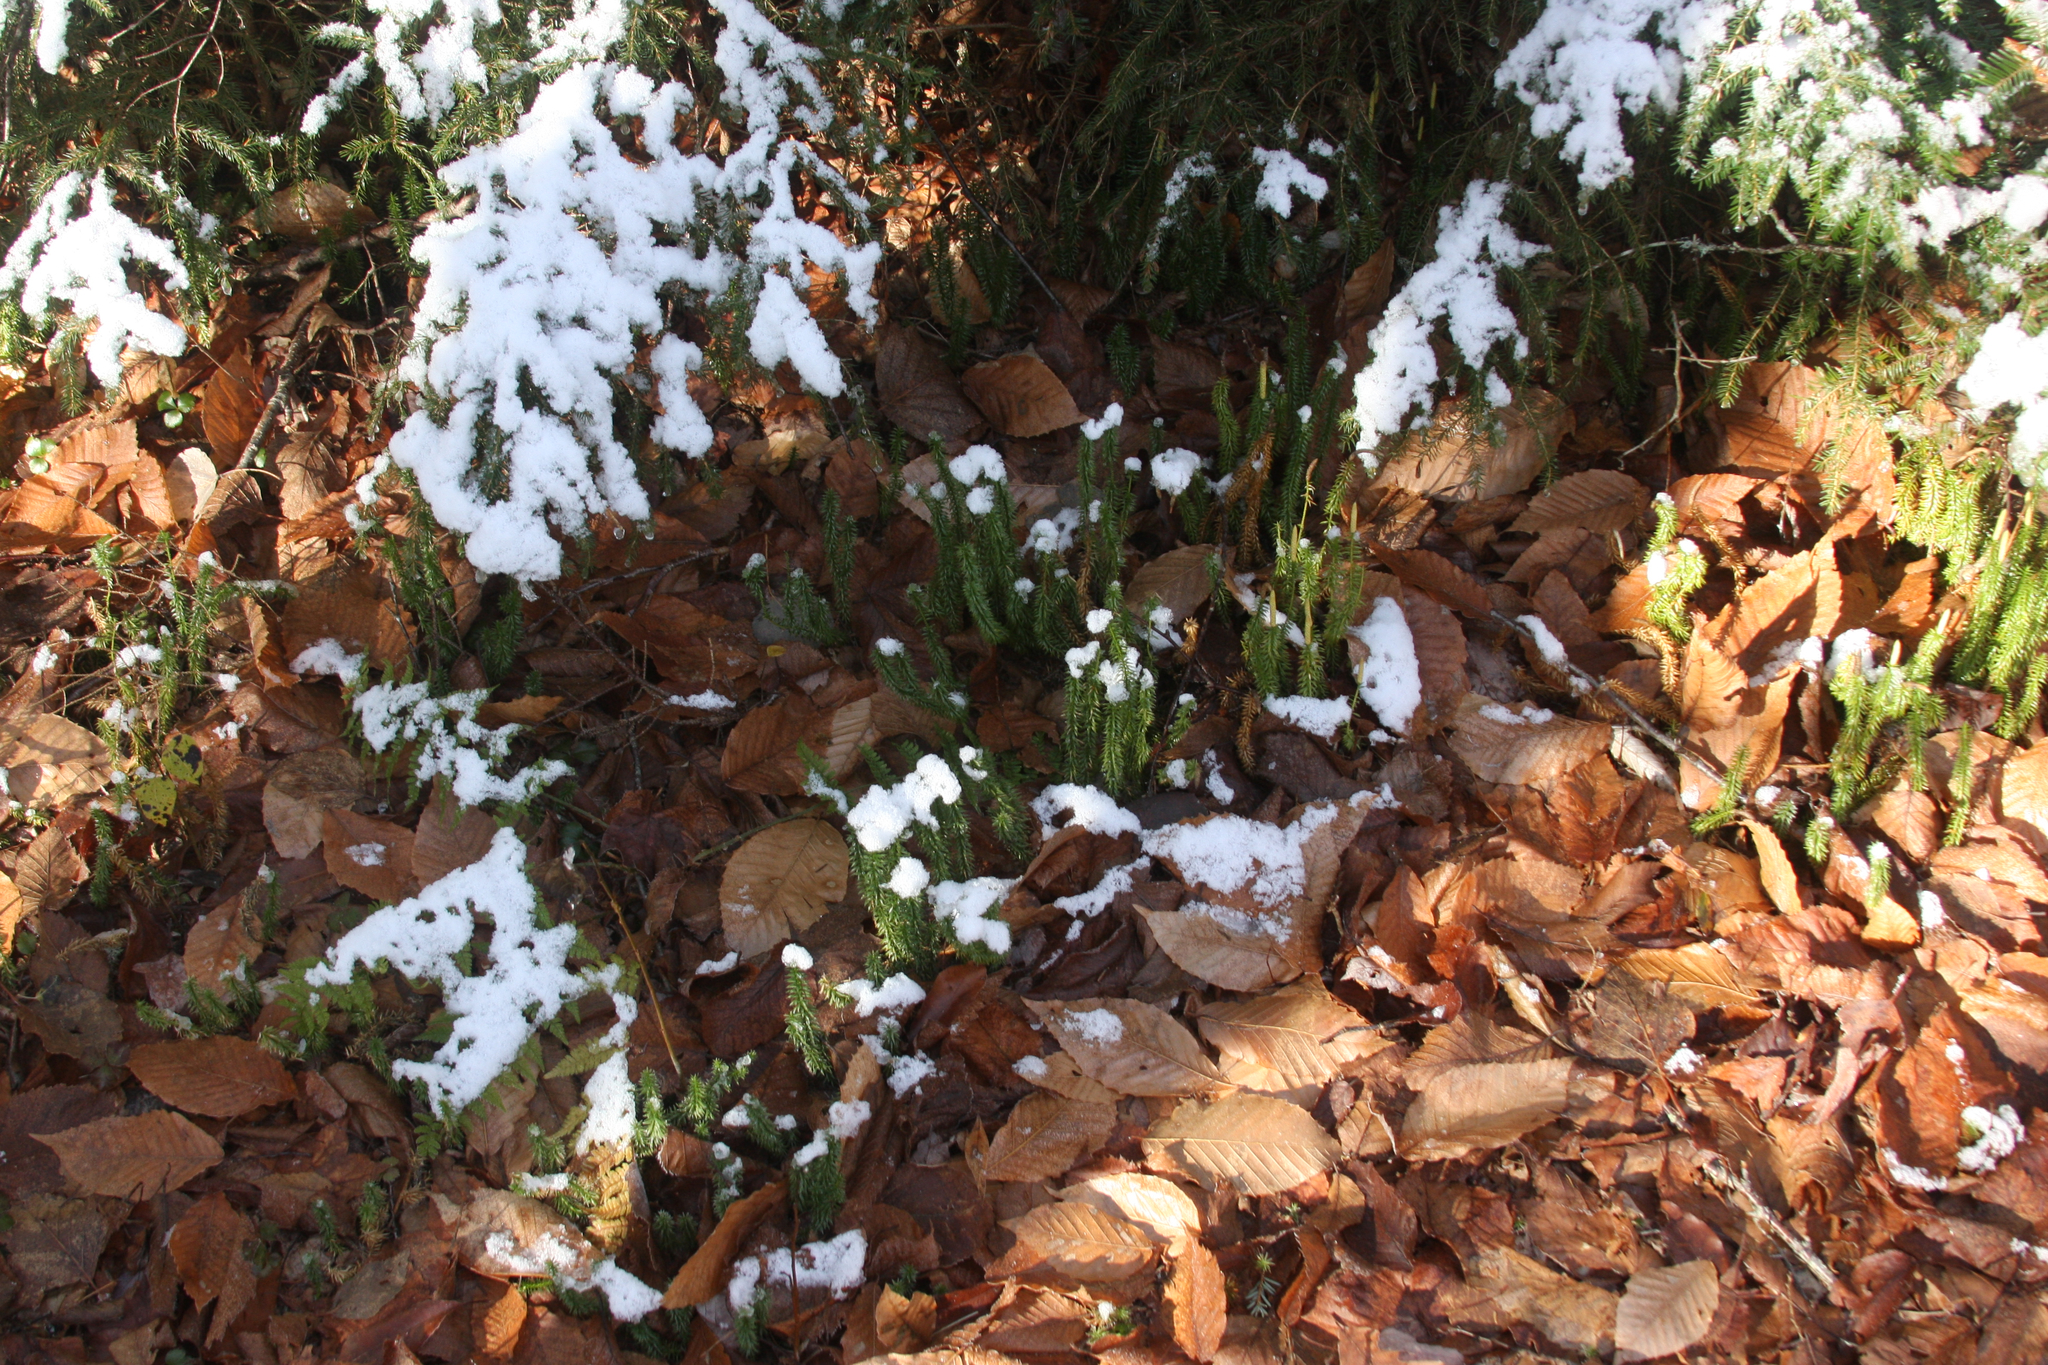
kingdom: Plantae
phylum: Tracheophyta
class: Lycopodiopsida
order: Lycopodiales
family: Lycopodiaceae
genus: Spinulum
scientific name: Spinulum annotinum
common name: Interrupted club-moss
